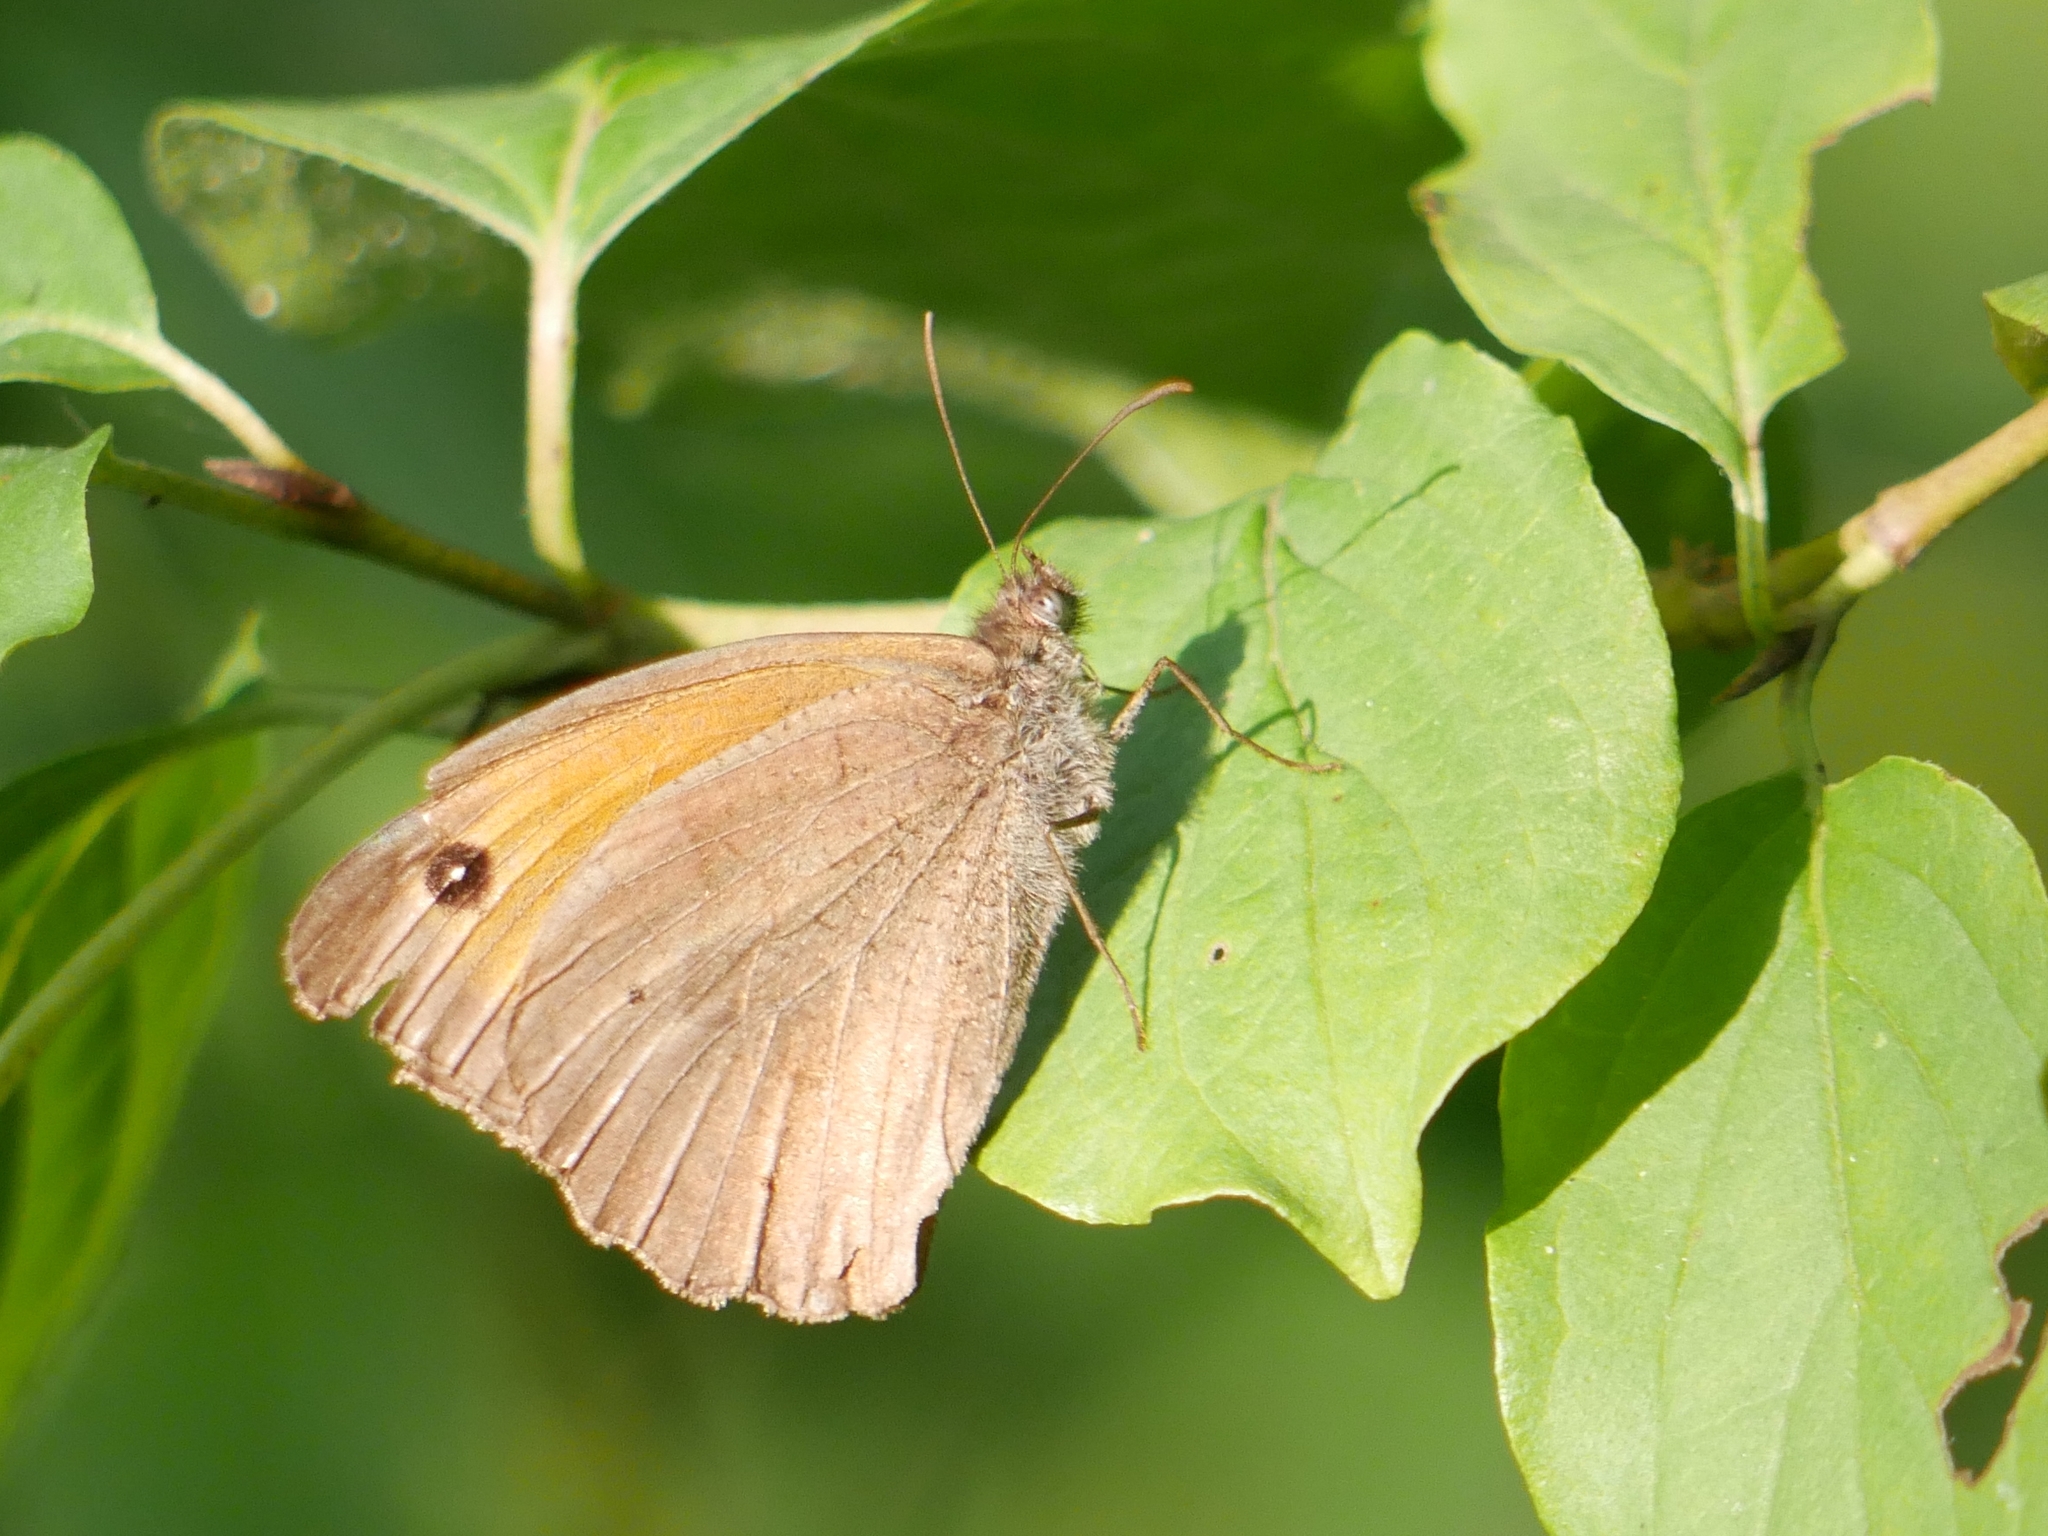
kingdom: Animalia
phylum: Arthropoda
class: Insecta
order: Lepidoptera
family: Nymphalidae
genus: Maniola
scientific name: Maniola jurtina
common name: Meadow brown
